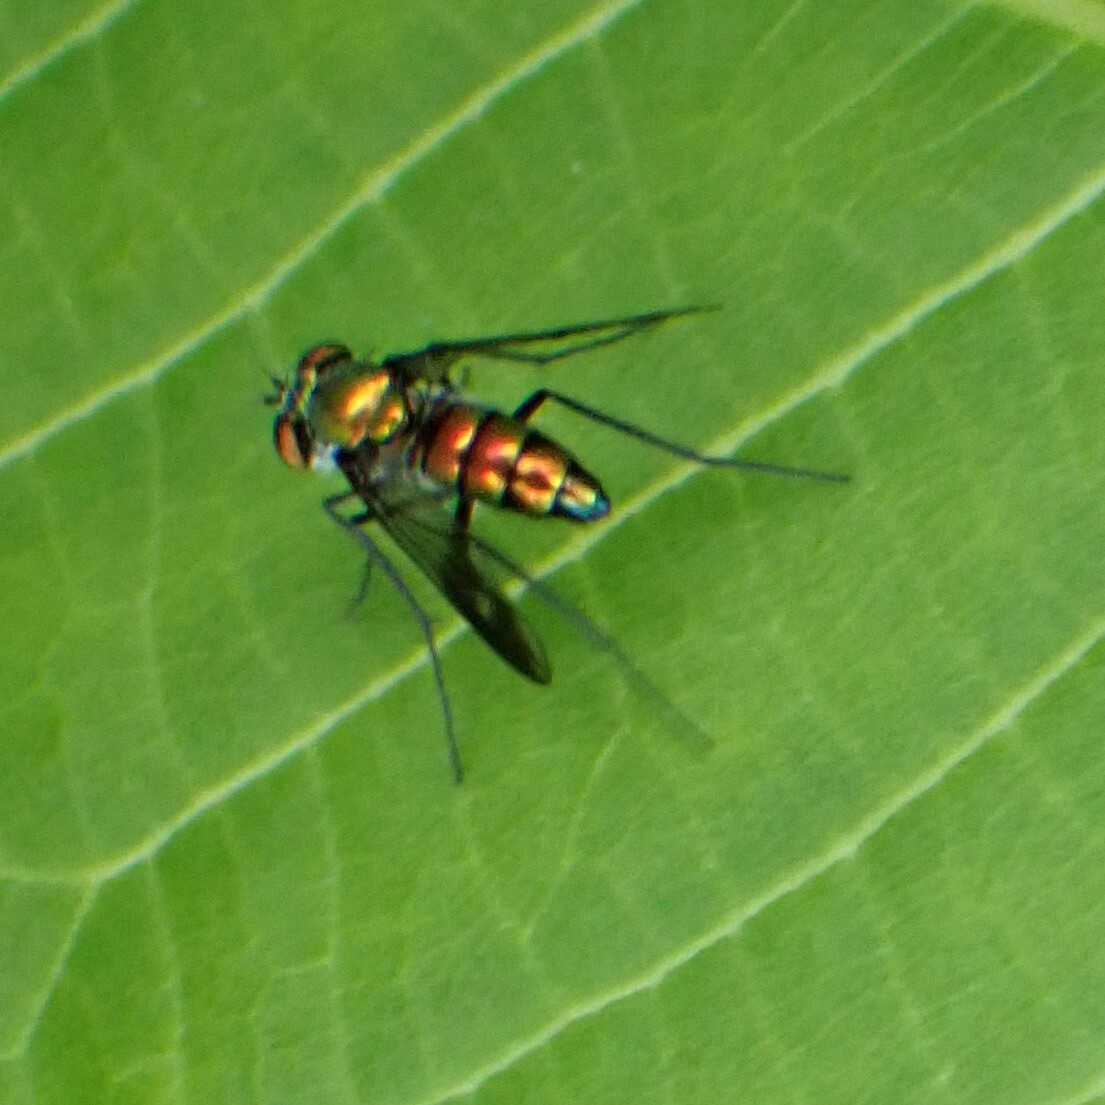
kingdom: Animalia
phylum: Arthropoda
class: Insecta
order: Diptera
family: Dolichopodidae
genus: Condylostylus
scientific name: Condylostylus patibulatus
